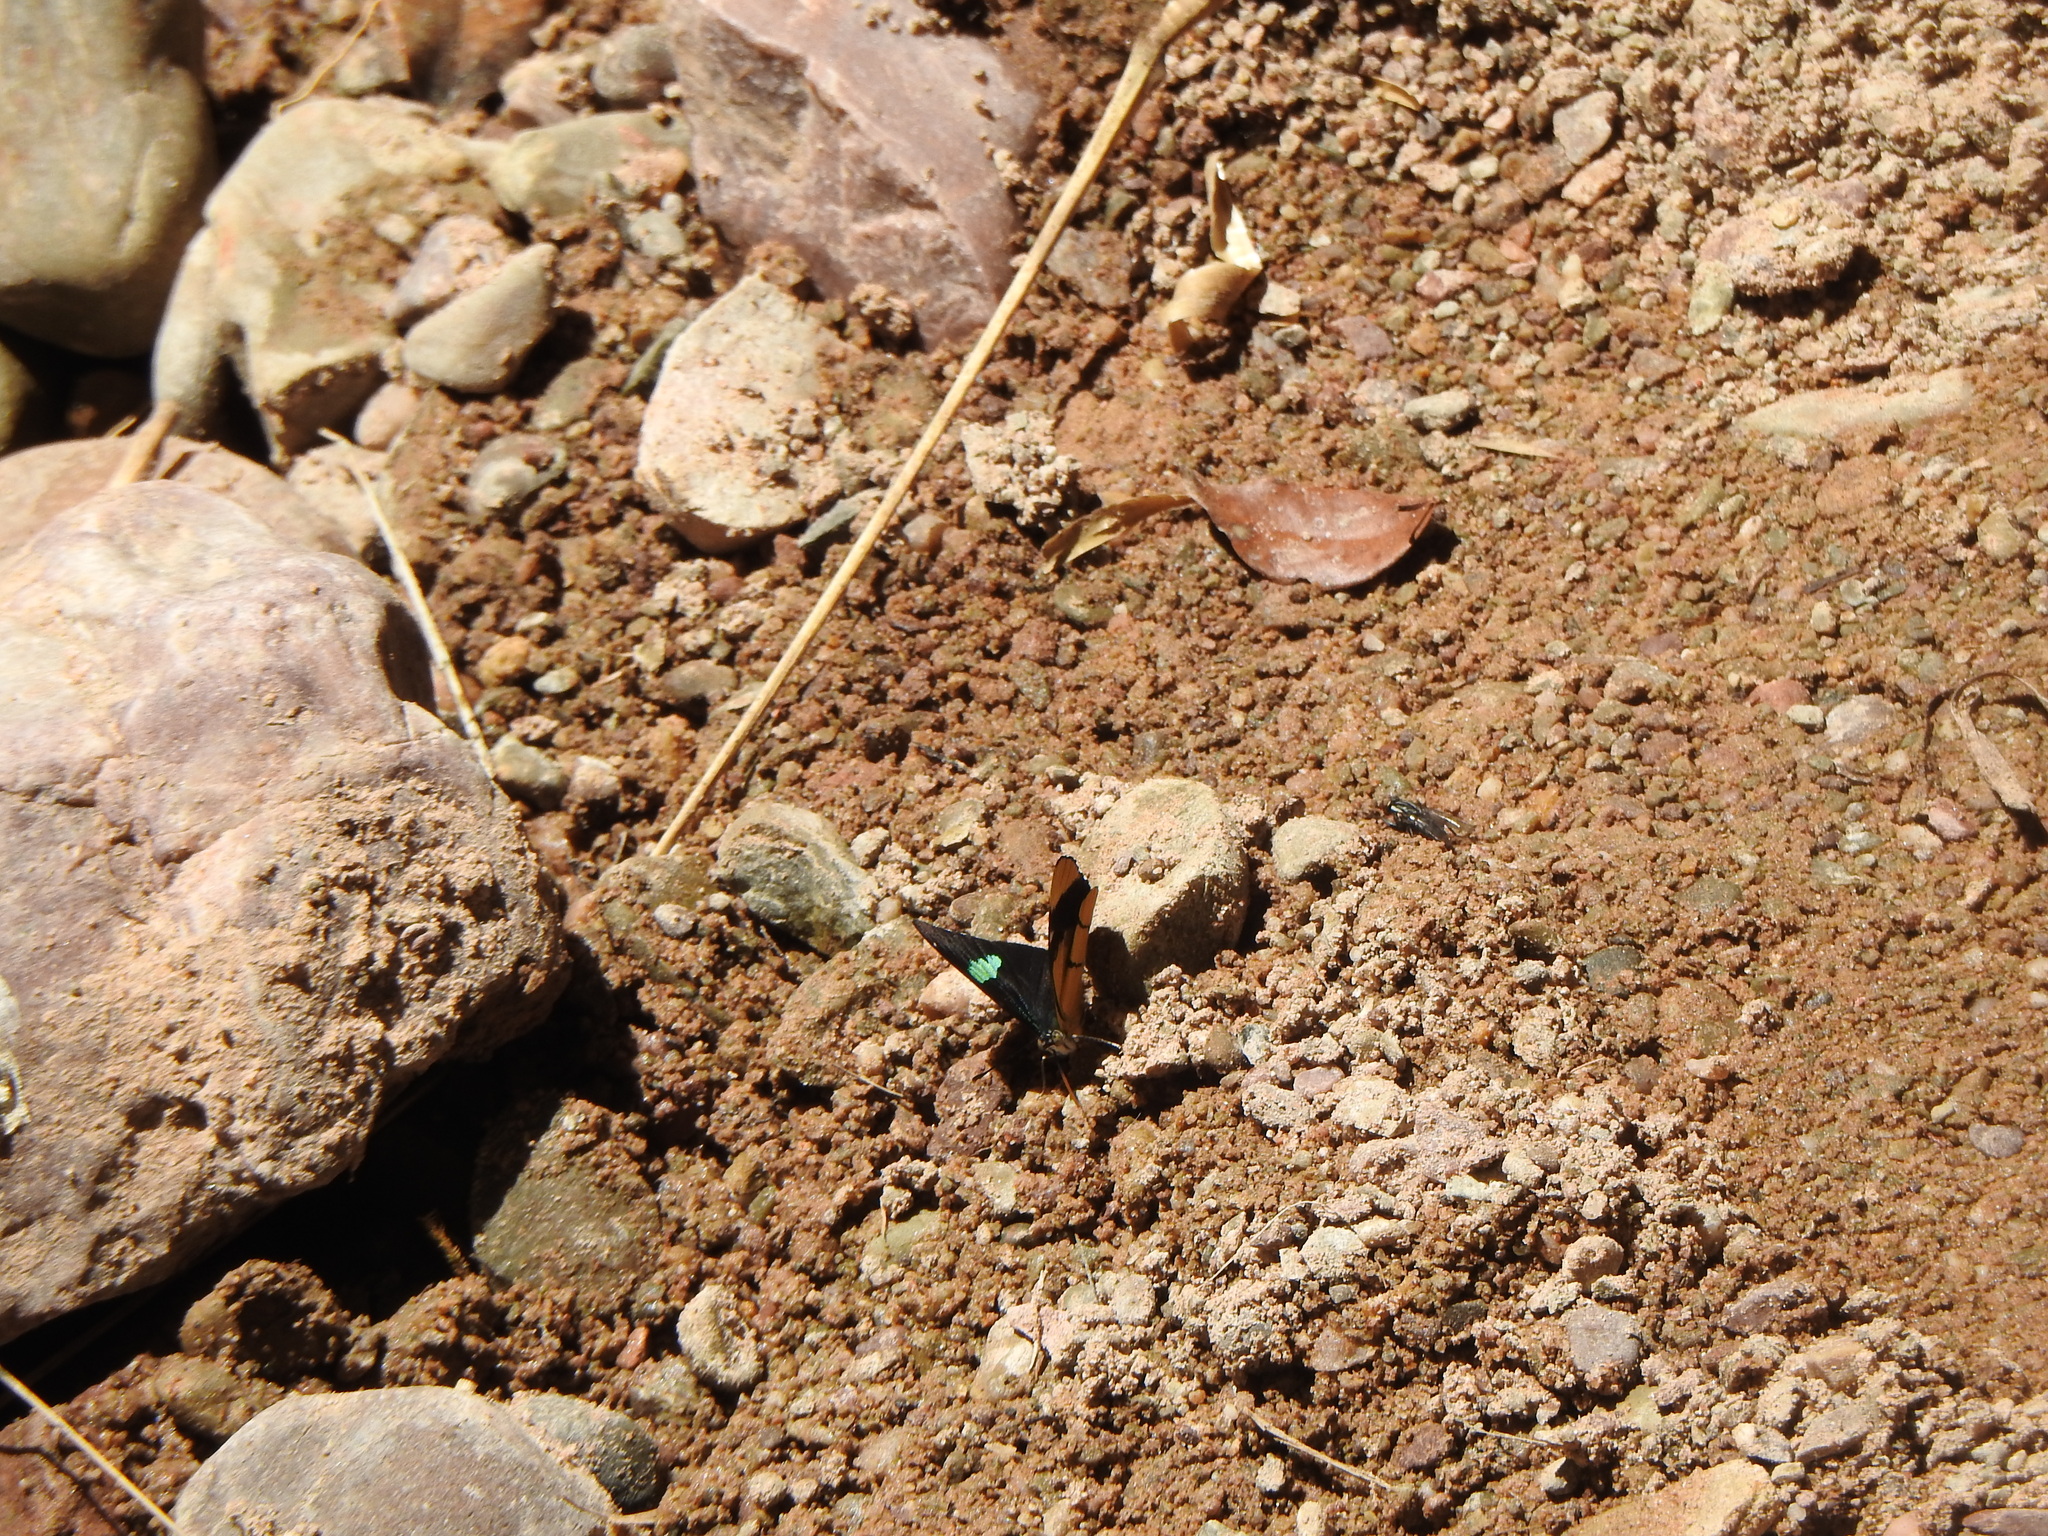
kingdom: Animalia
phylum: Arthropoda
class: Insecta
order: Lepidoptera
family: Nymphalidae
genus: Perisama
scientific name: Perisama oppelii
